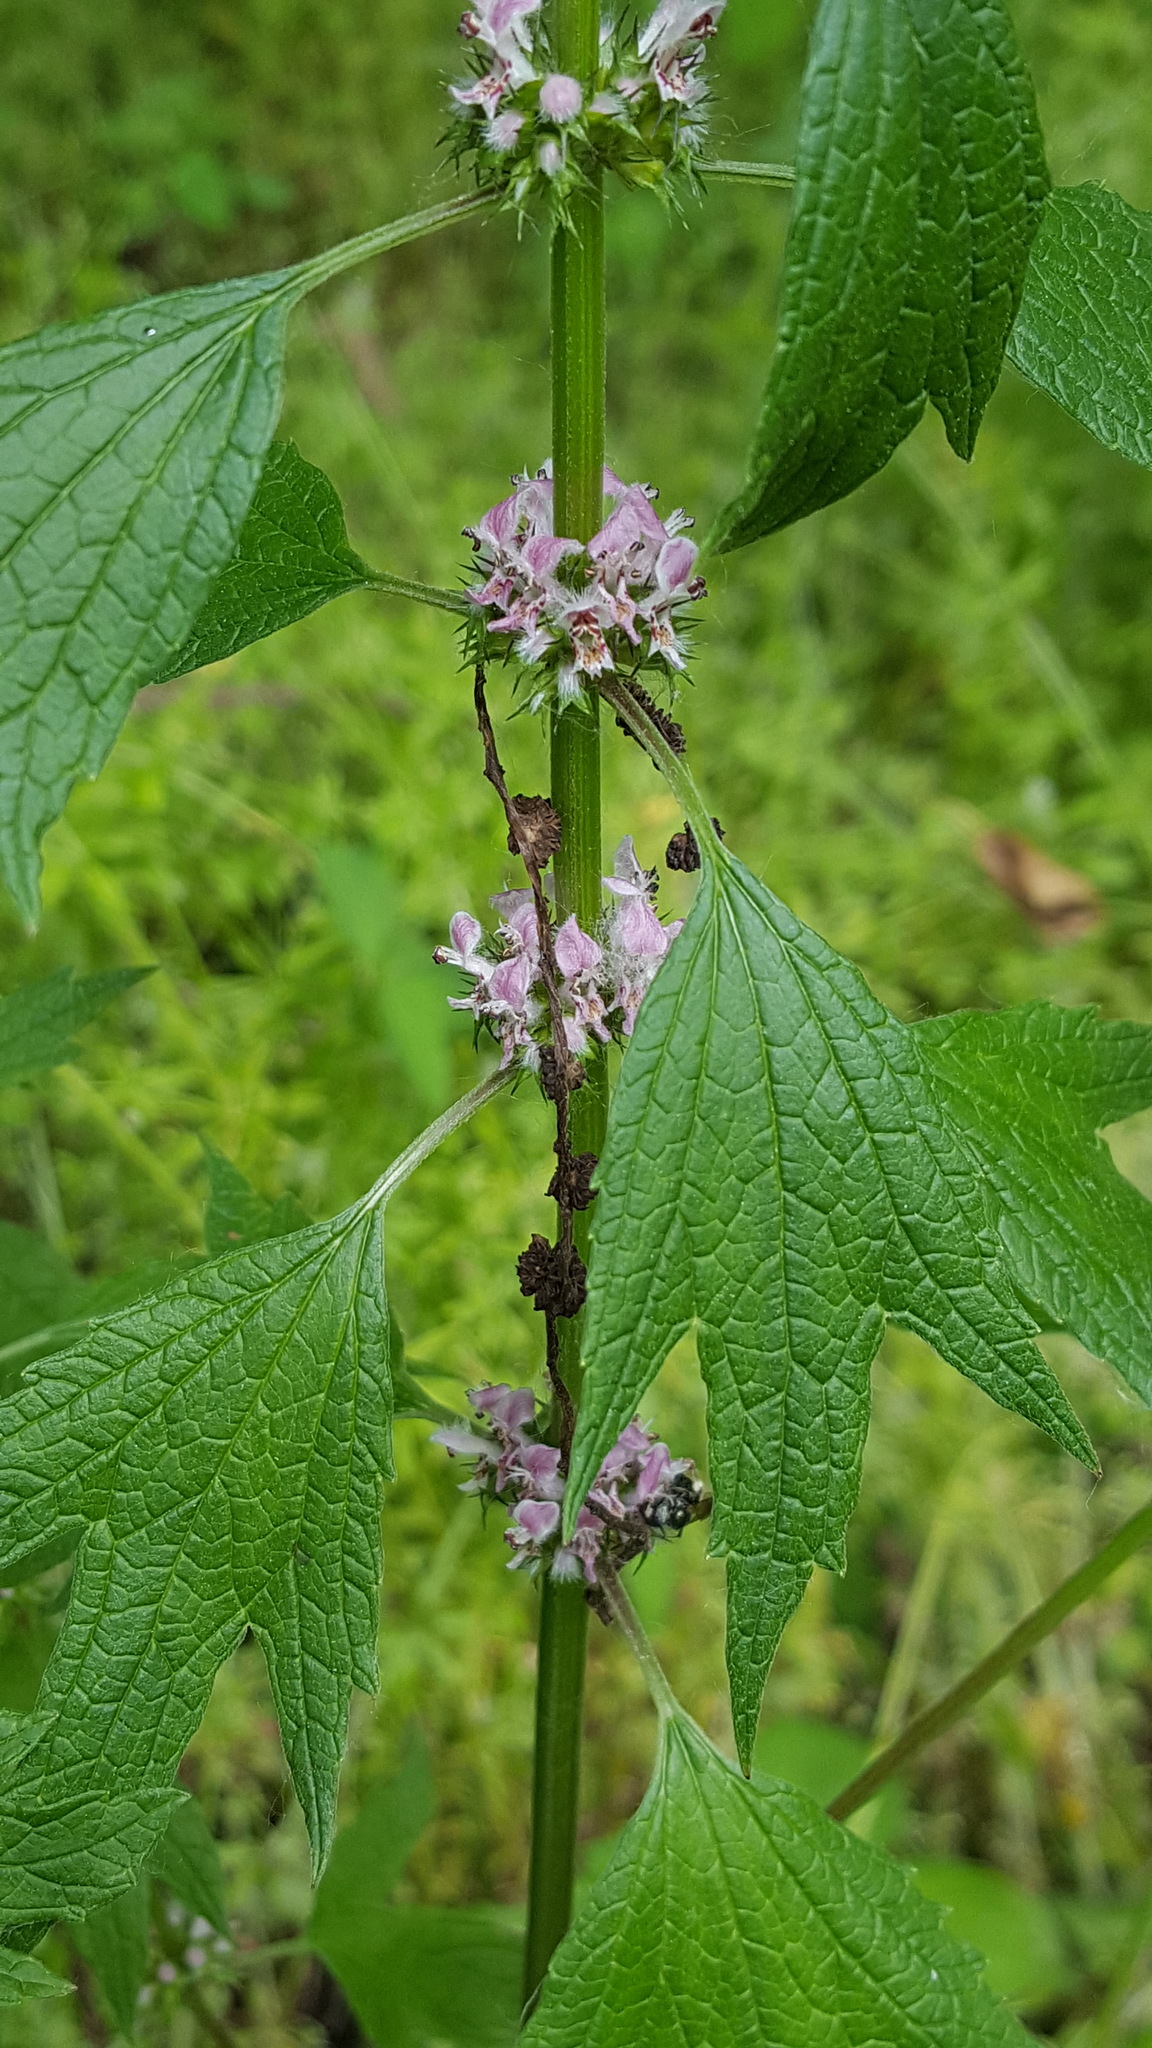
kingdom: Plantae
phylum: Tracheophyta
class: Magnoliopsida
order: Lamiales
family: Lamiaceae
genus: Leonurus
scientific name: Leonurus cardiaca
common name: Motherwort
